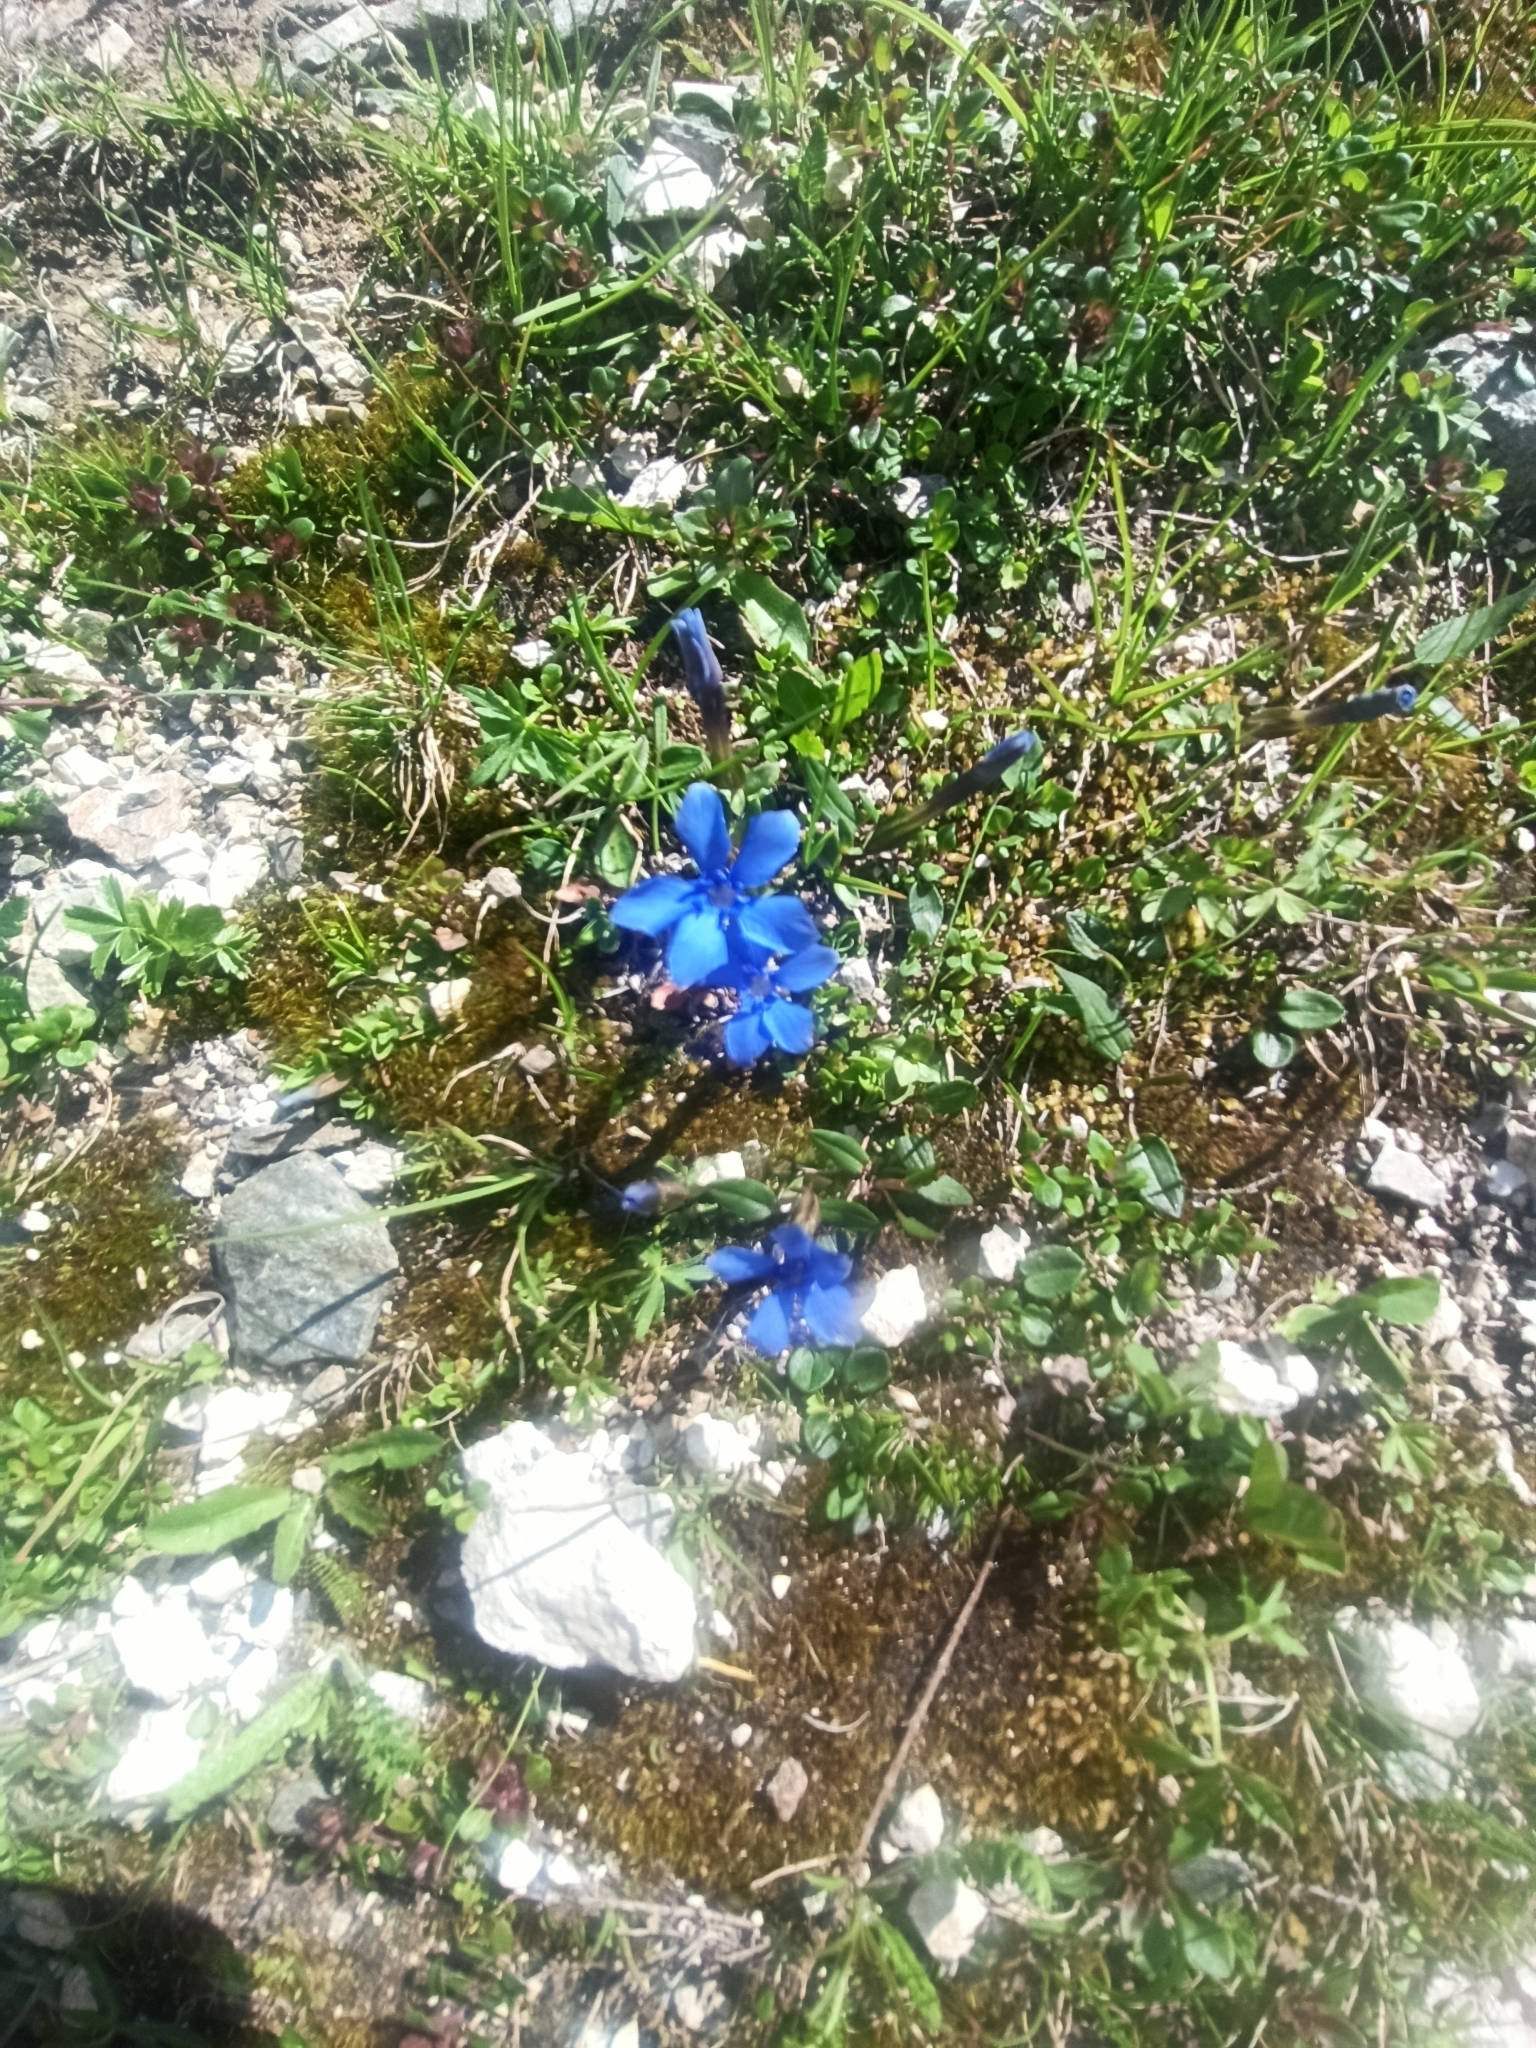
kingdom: Plantae
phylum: Tracheophyta
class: Magnoliopsida
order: Gentianales
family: Gentianaceae
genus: Gentiana
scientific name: Gentiana verna
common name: Spring gentian
